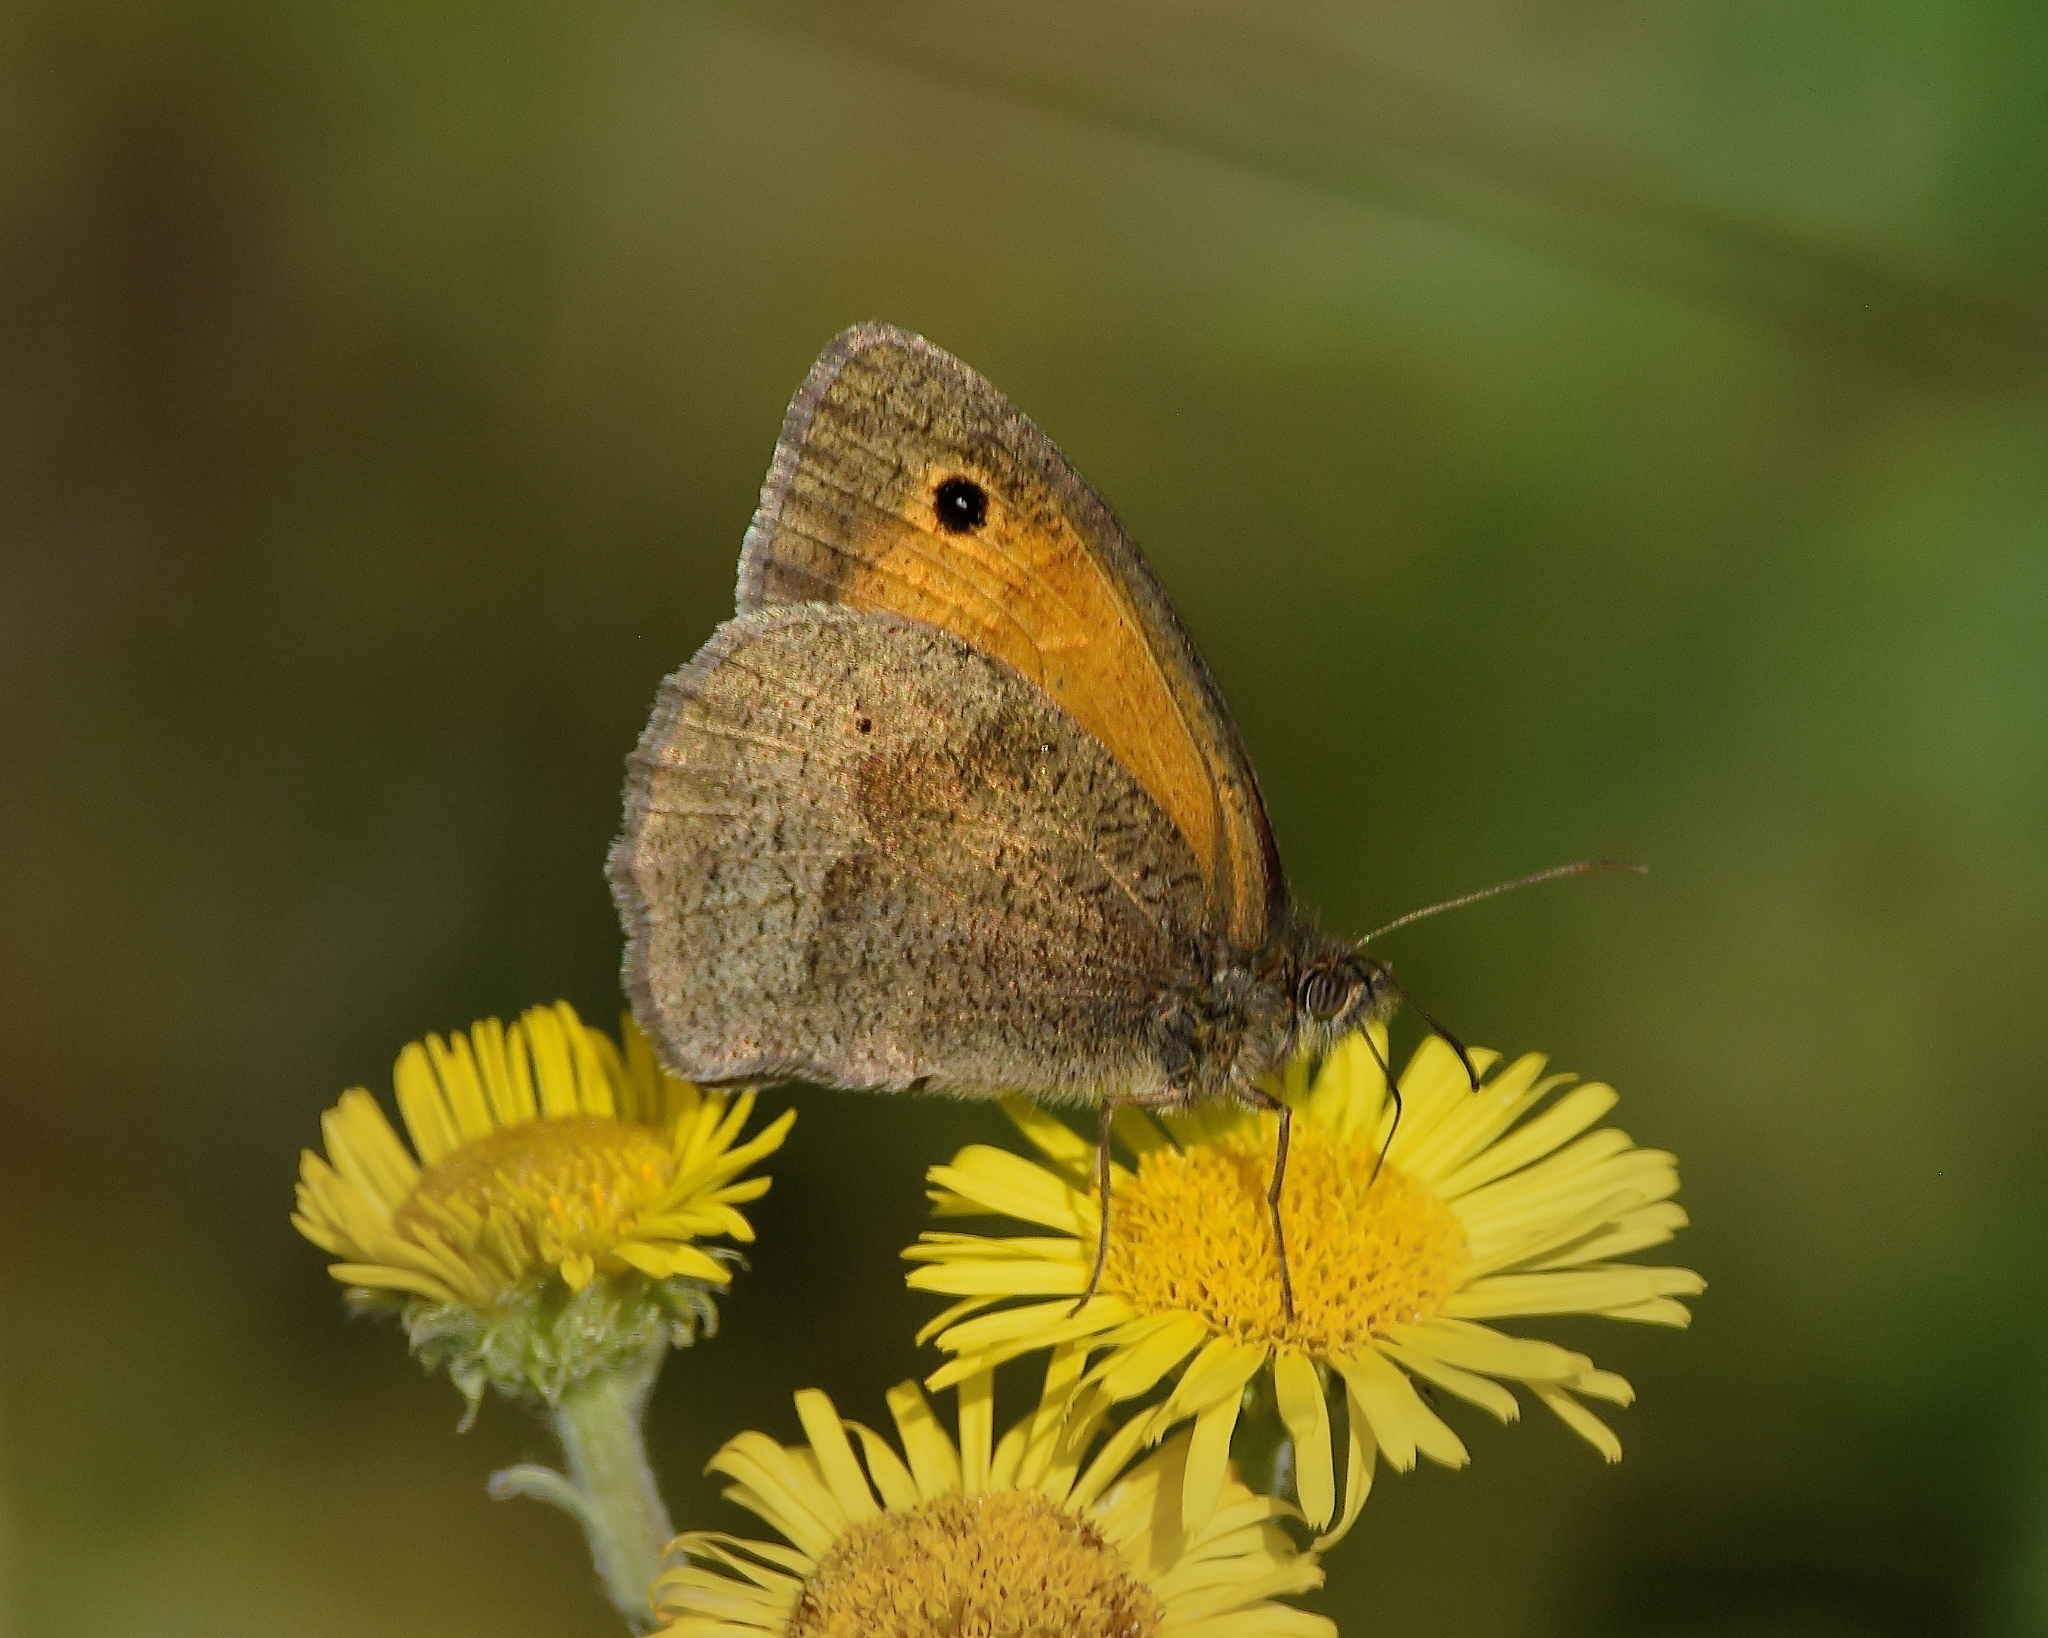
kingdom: Animalia
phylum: Arthropoda
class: Insecta
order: Lepidoptera
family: Nymphalidae
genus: Maniola
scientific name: Maniola jurtina
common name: Meadow brown
